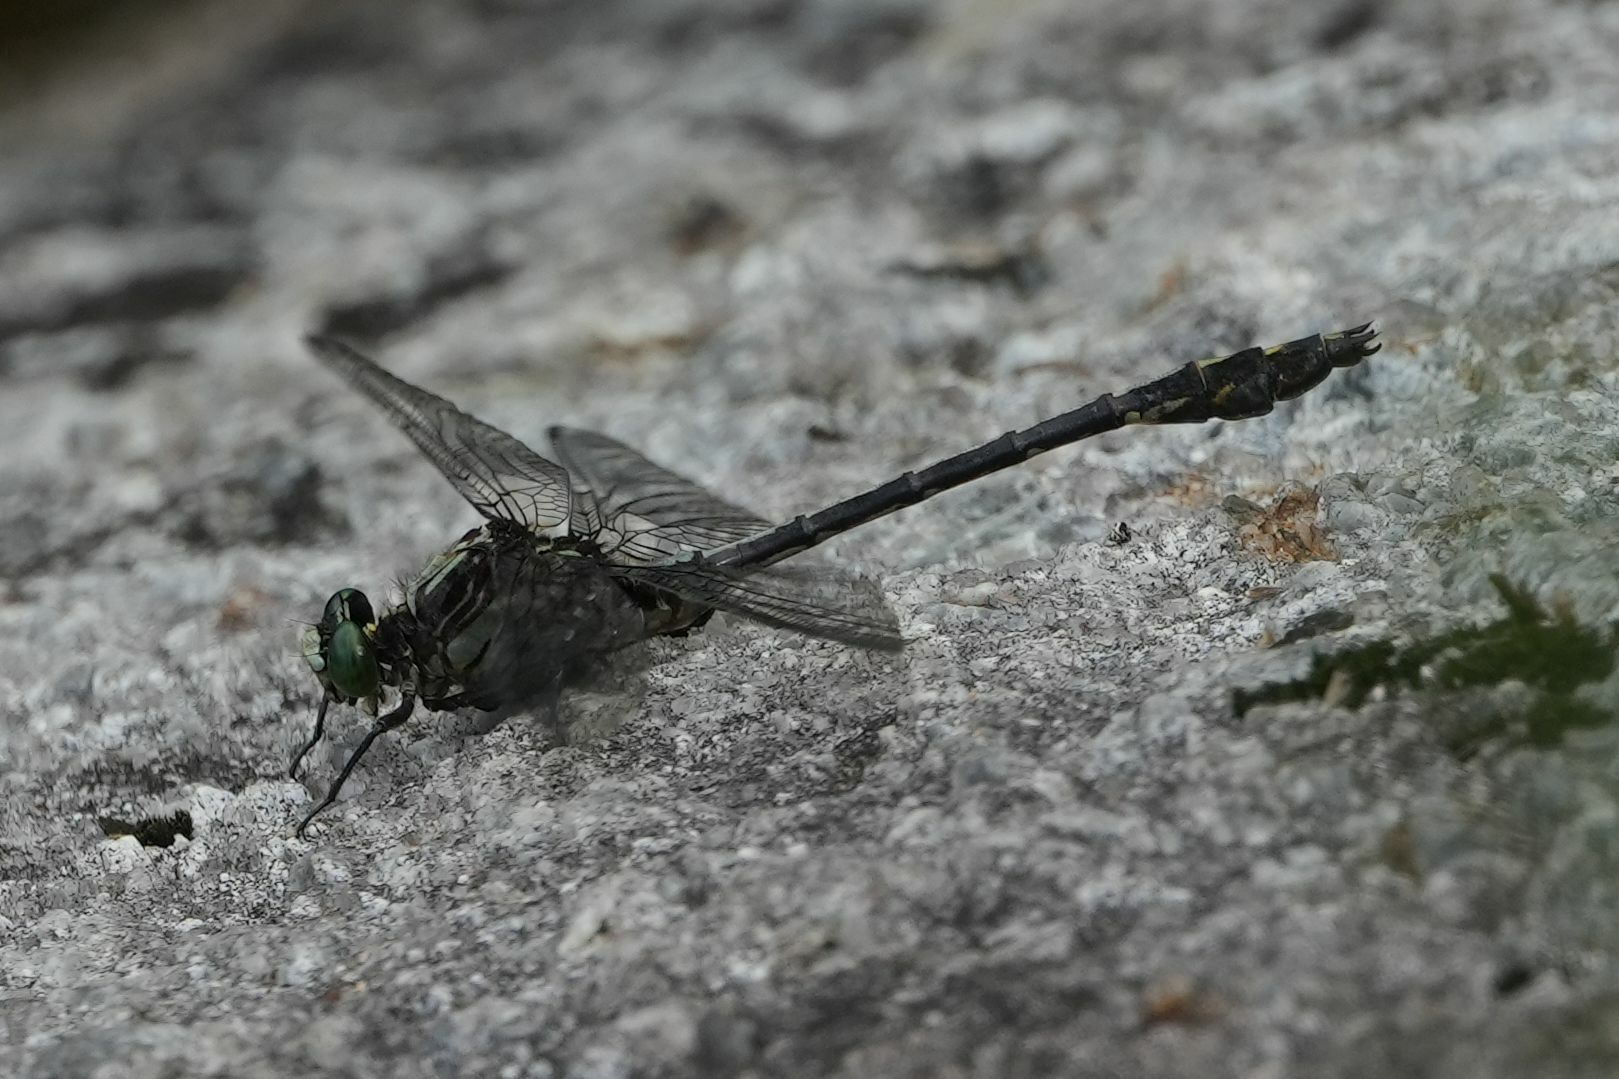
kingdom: Animalia
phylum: Arthropoda
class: Insecta
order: Odonata
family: Gomphidae
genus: Dromogomphus
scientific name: Dromogomphus spinosus
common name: Black-shouldered spinyleg
